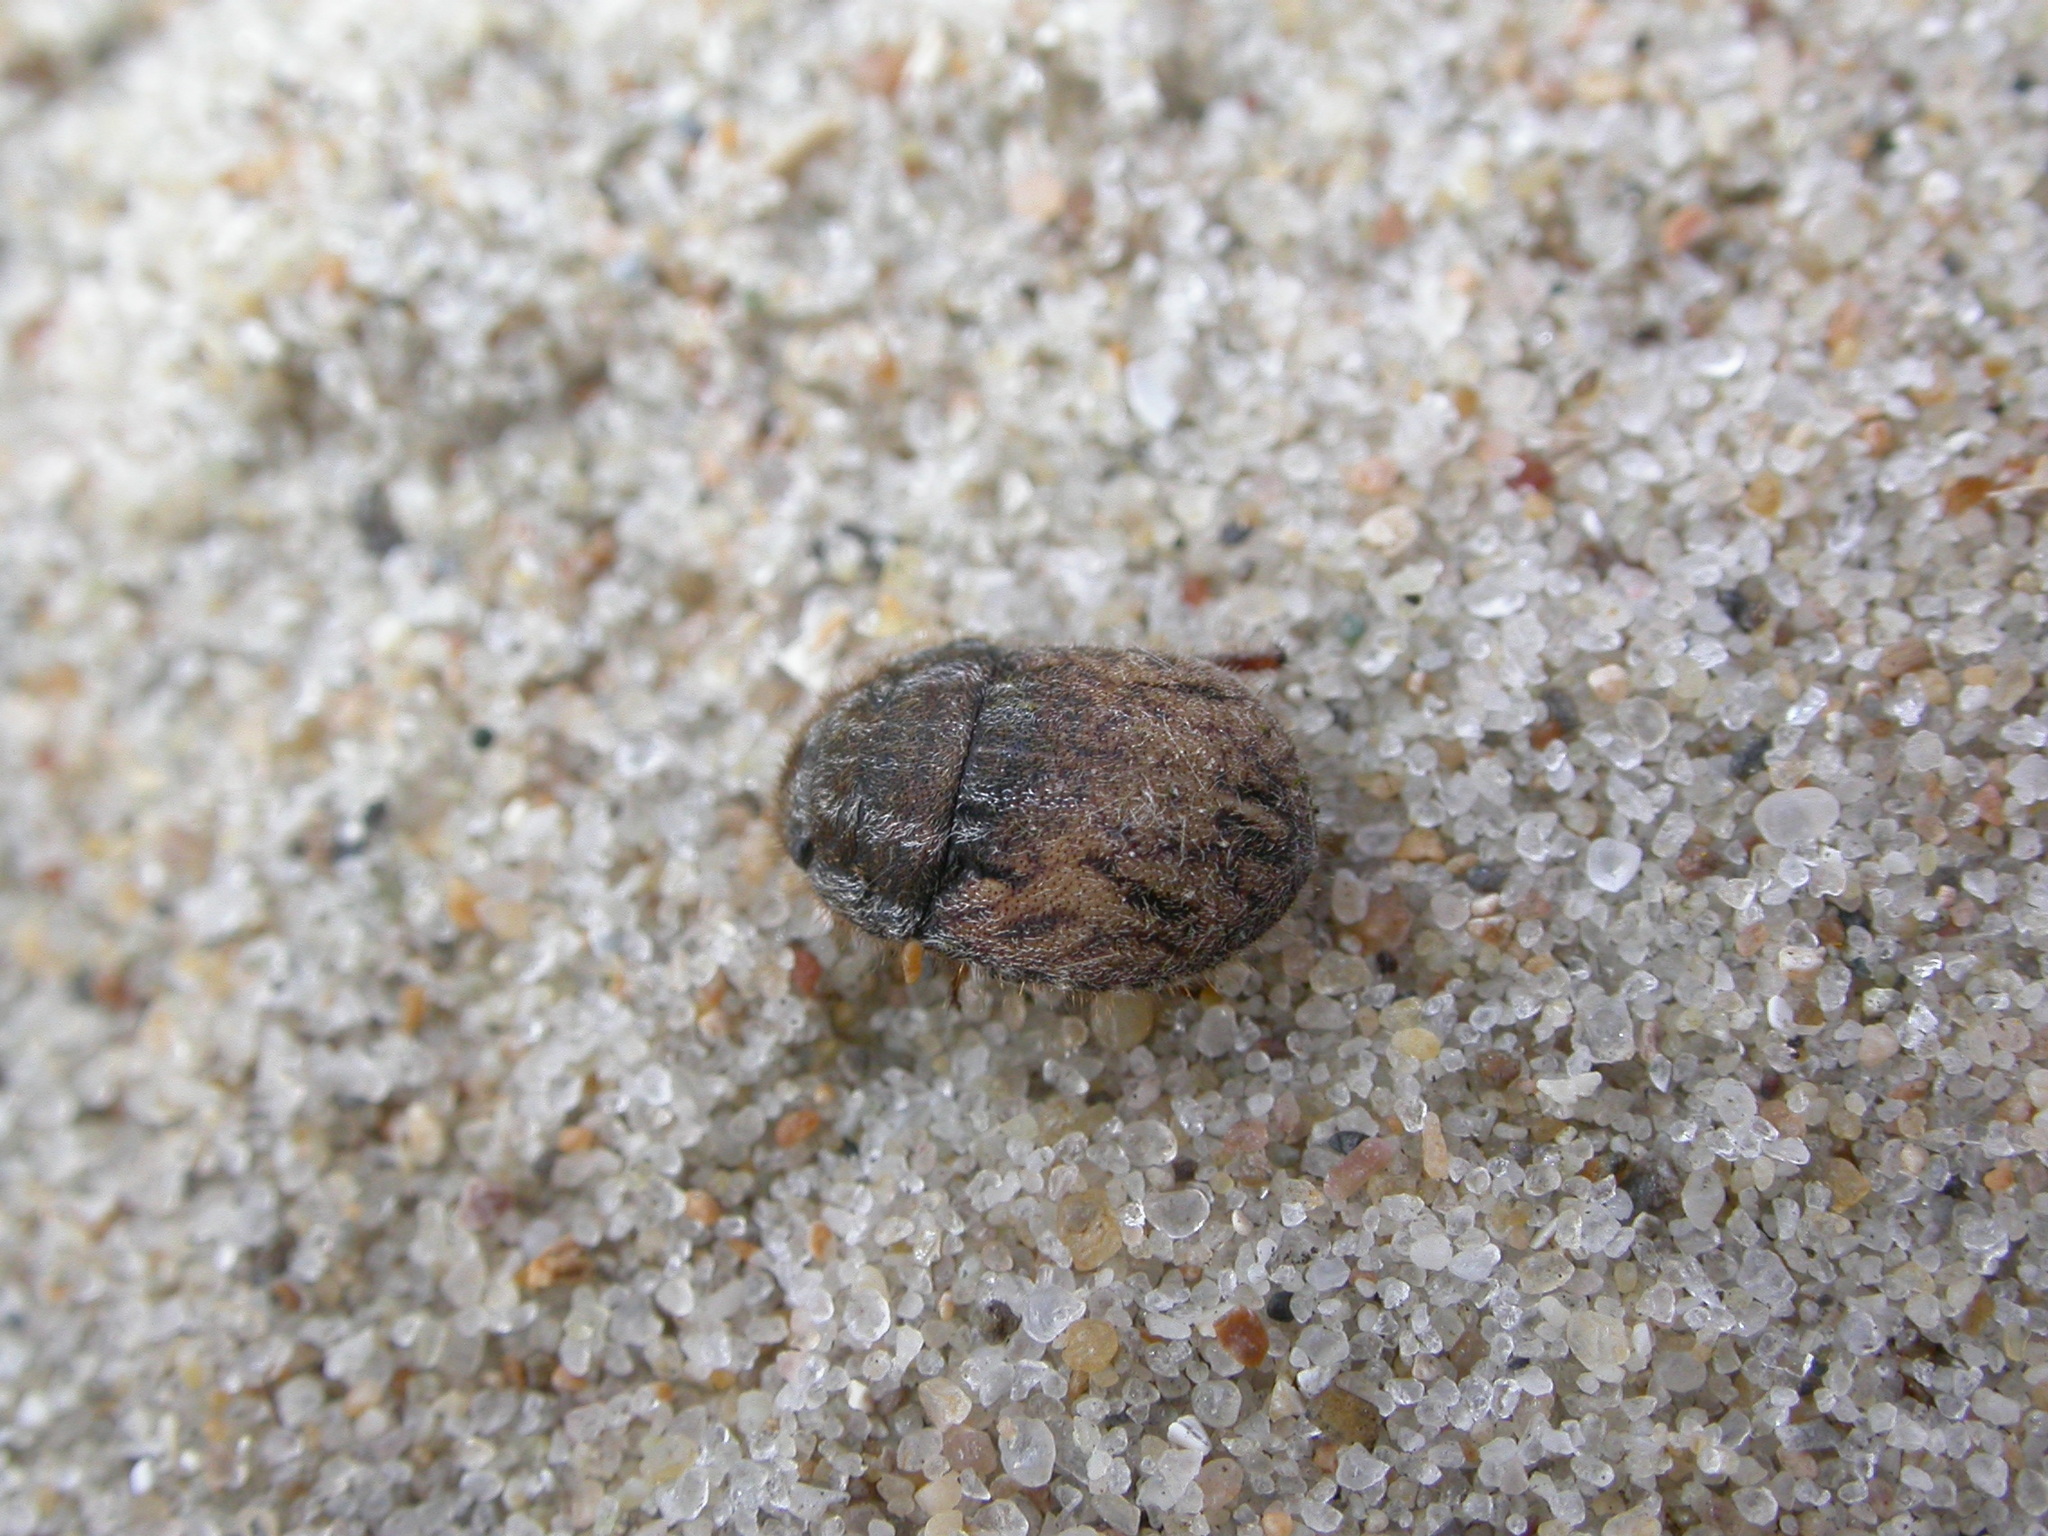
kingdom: Animalia
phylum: Arthropoda
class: Insecta
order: Hemiptera
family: Scutelleridae
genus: Odontoscelis
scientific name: Odontoscelis lineola
